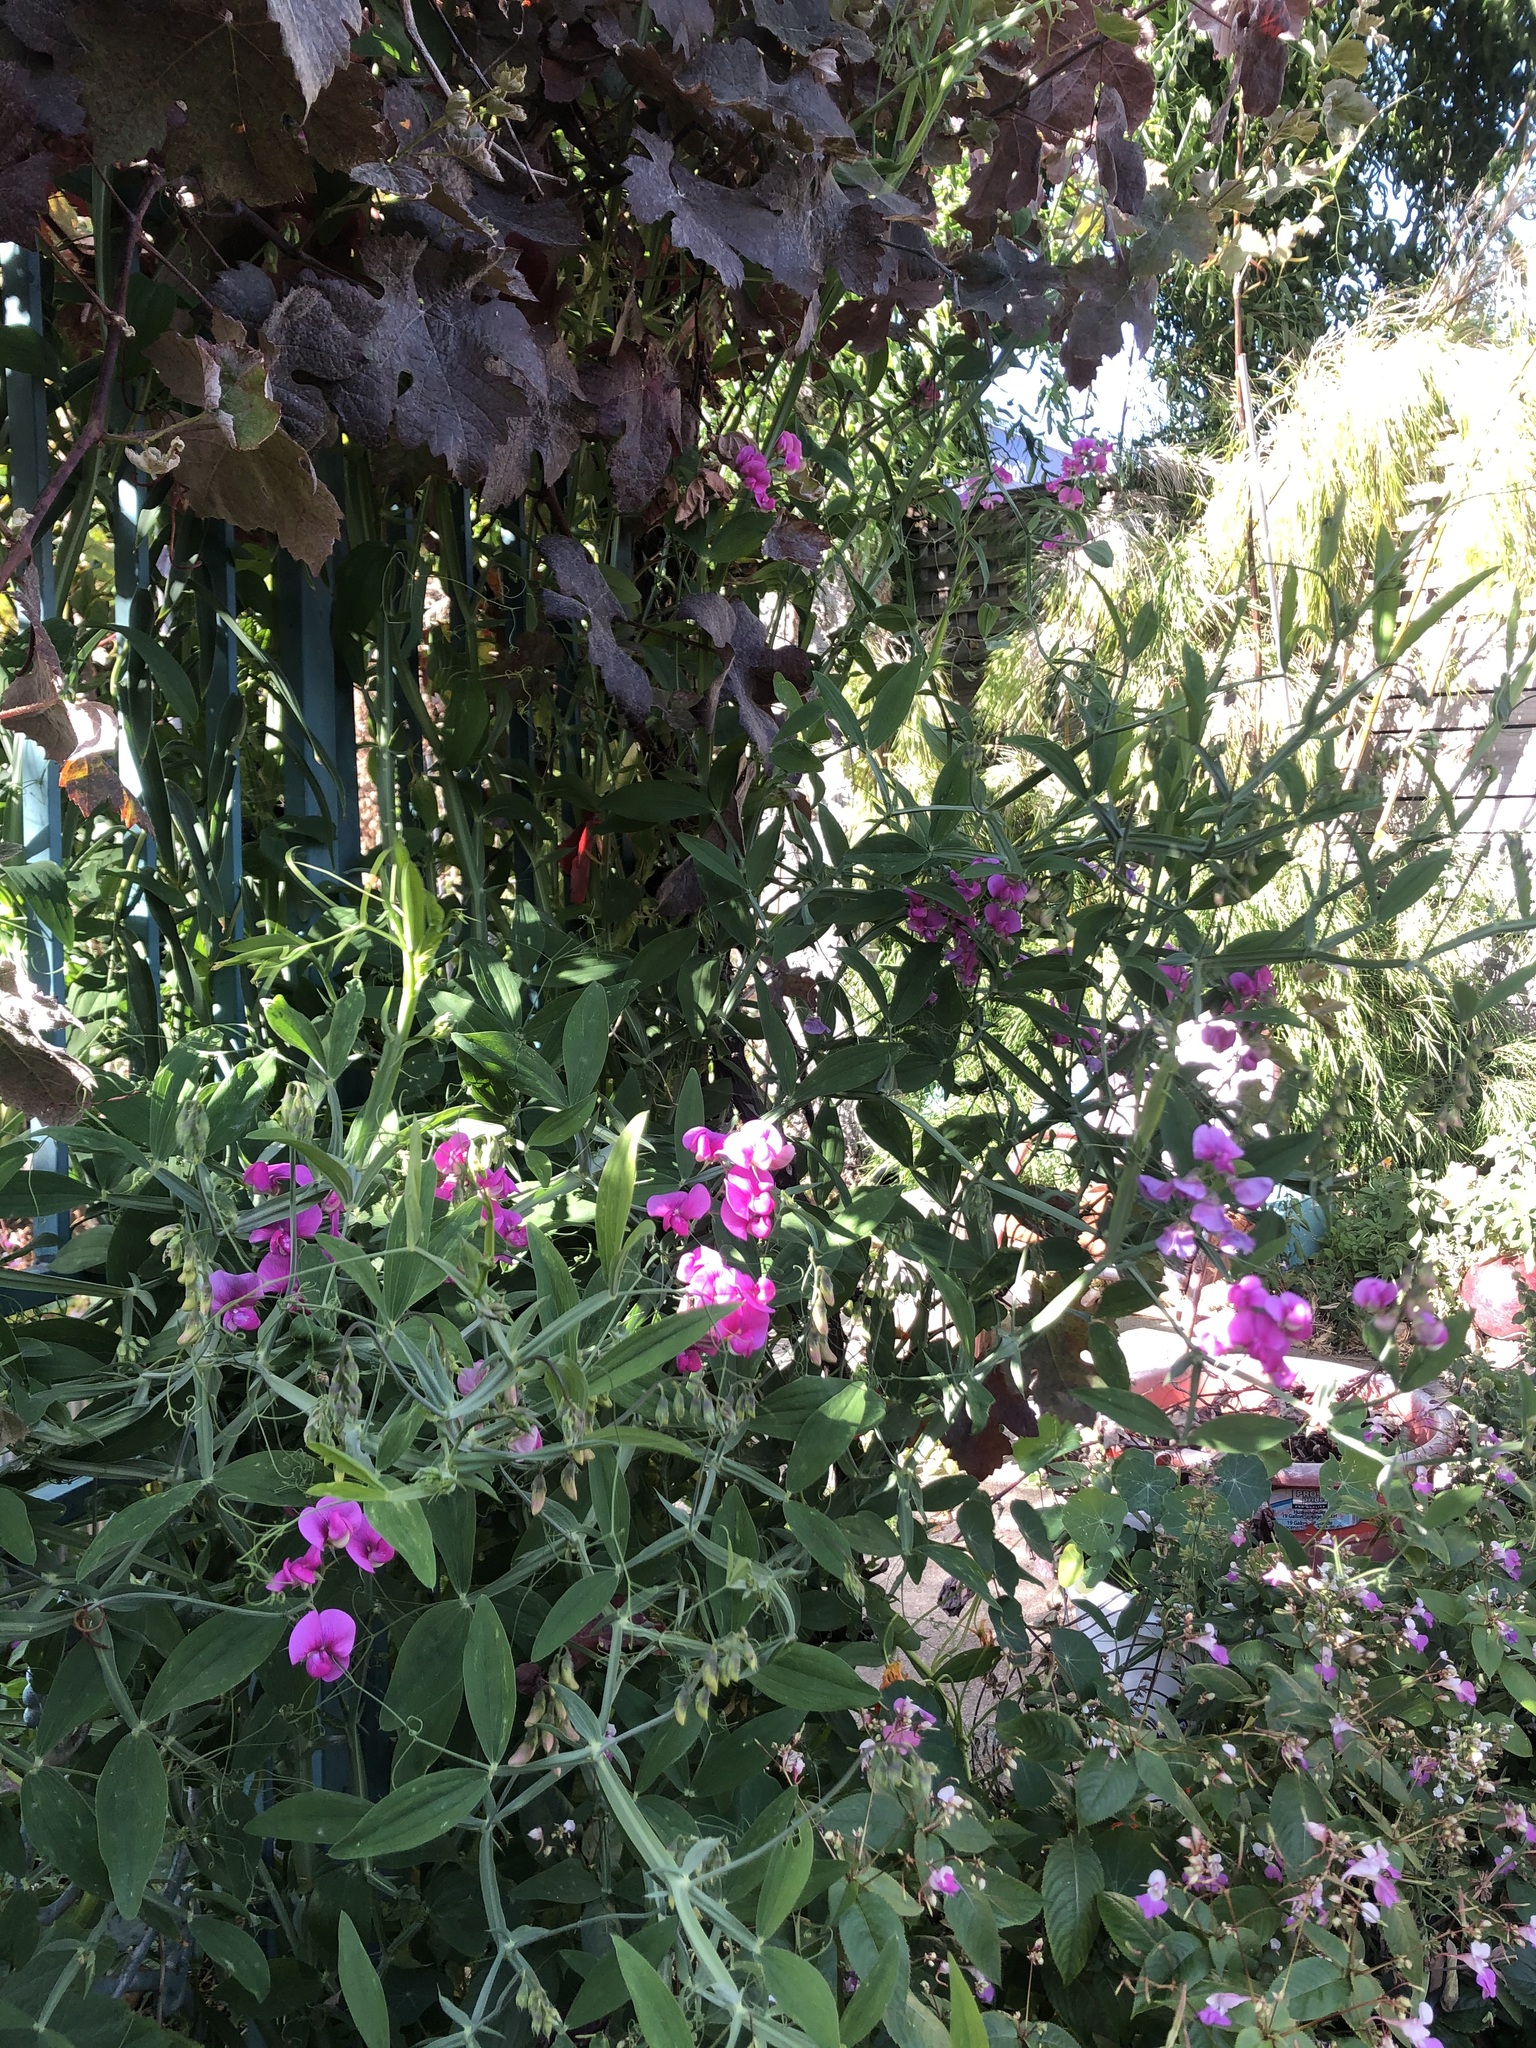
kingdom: Plantae
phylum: Tracheophyta
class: Magnoliopsida
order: Fabales
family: Fabaceae
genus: Lathyrus
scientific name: Lathyrus latifolius
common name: Perennial pea
